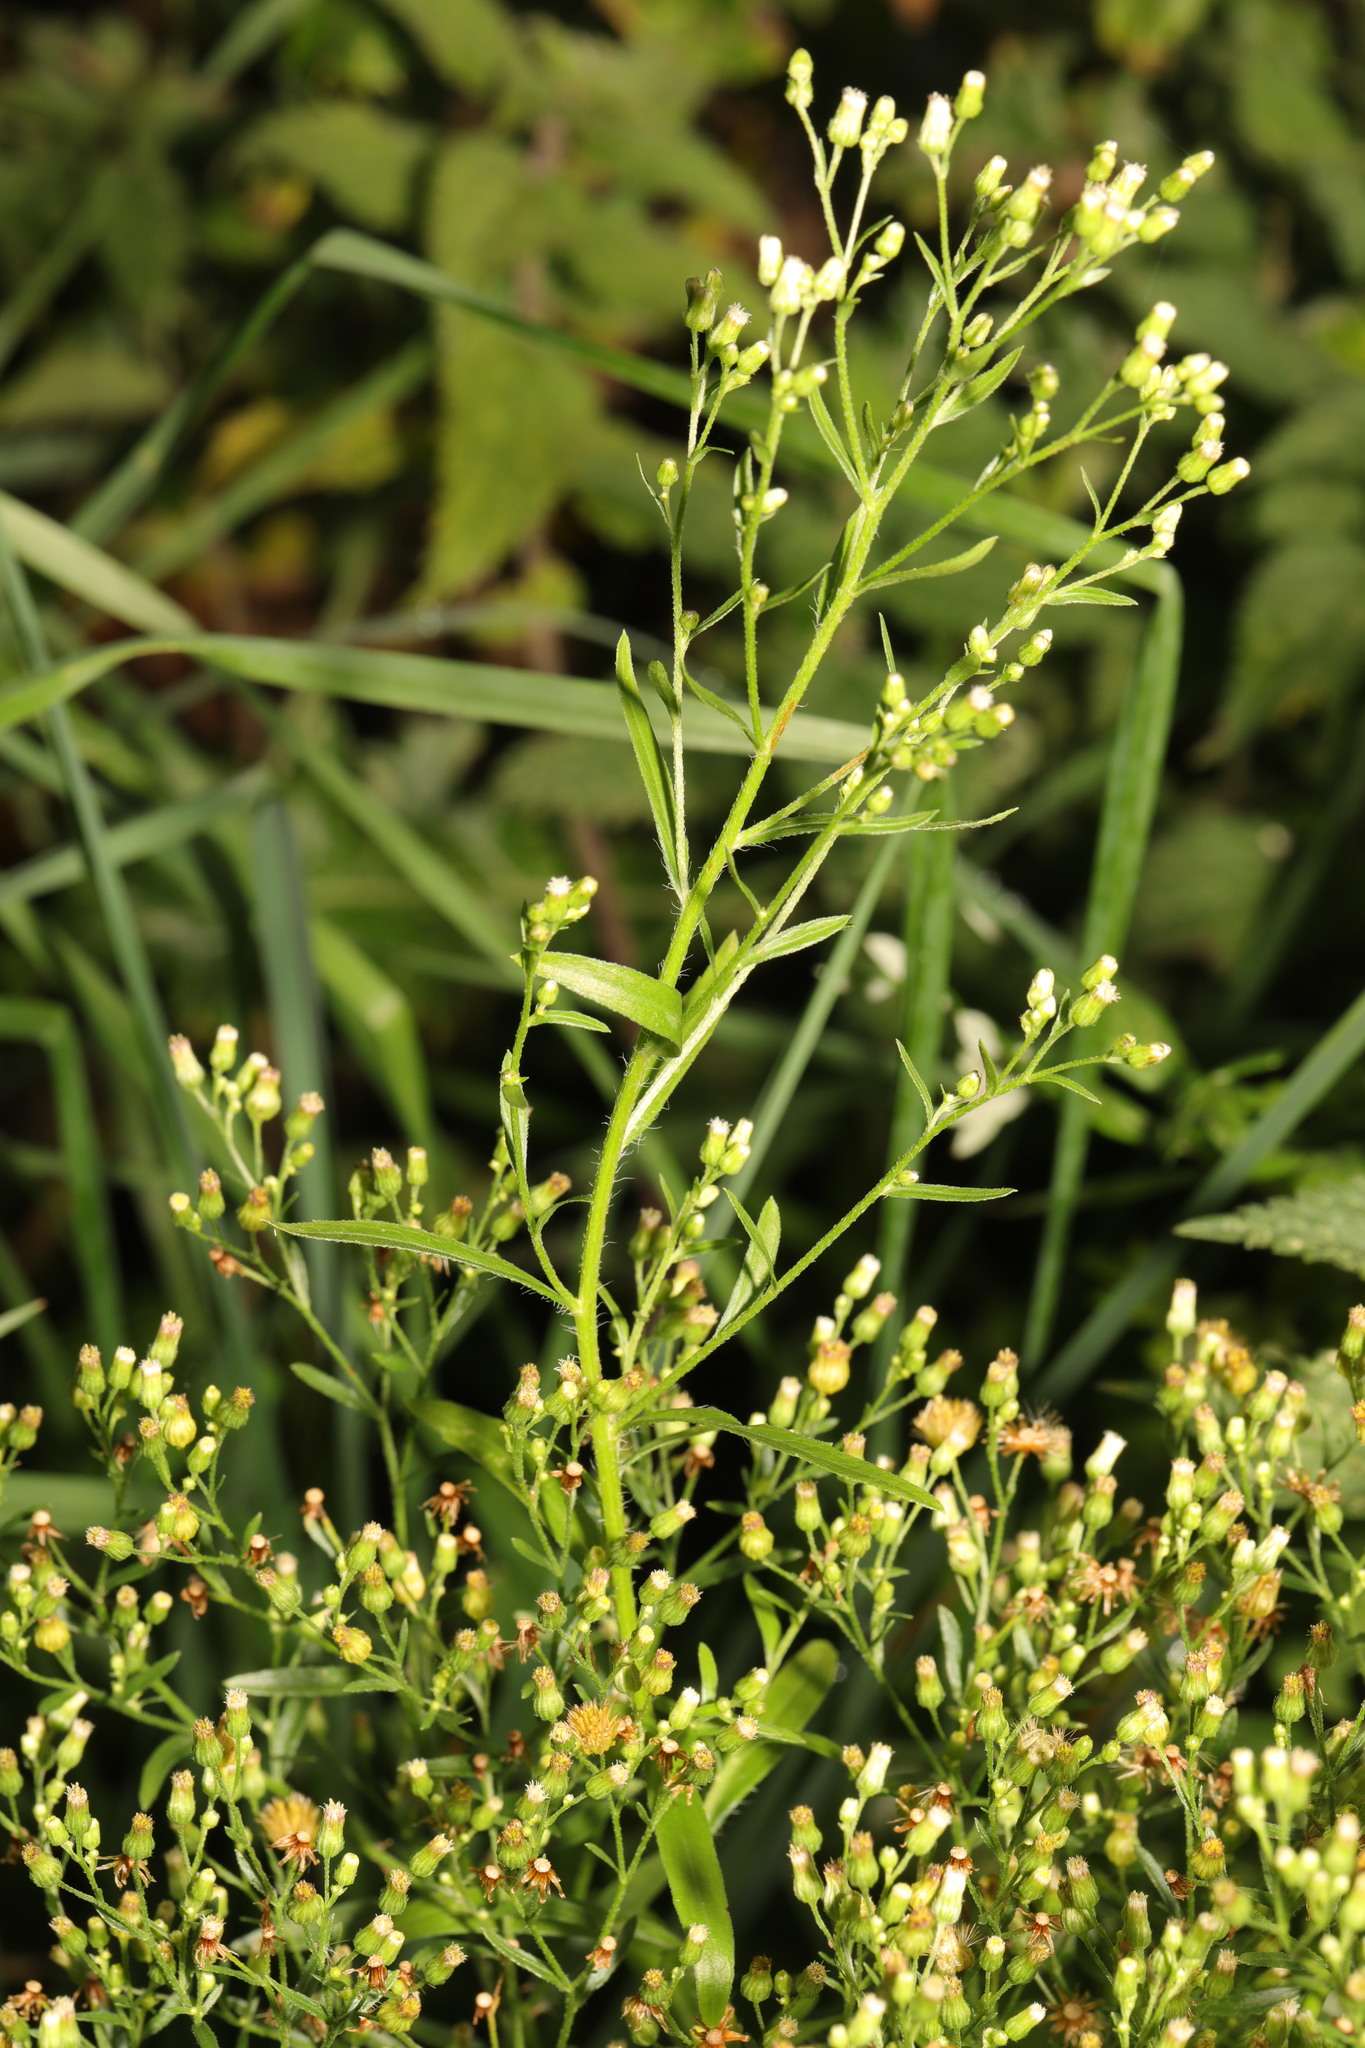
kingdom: Plantae
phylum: Tracheophyta
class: Magnoliopsida
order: Asterales
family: Asteraceae
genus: Erigeron
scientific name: Erigeron canadensis
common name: Canadian fleabane
